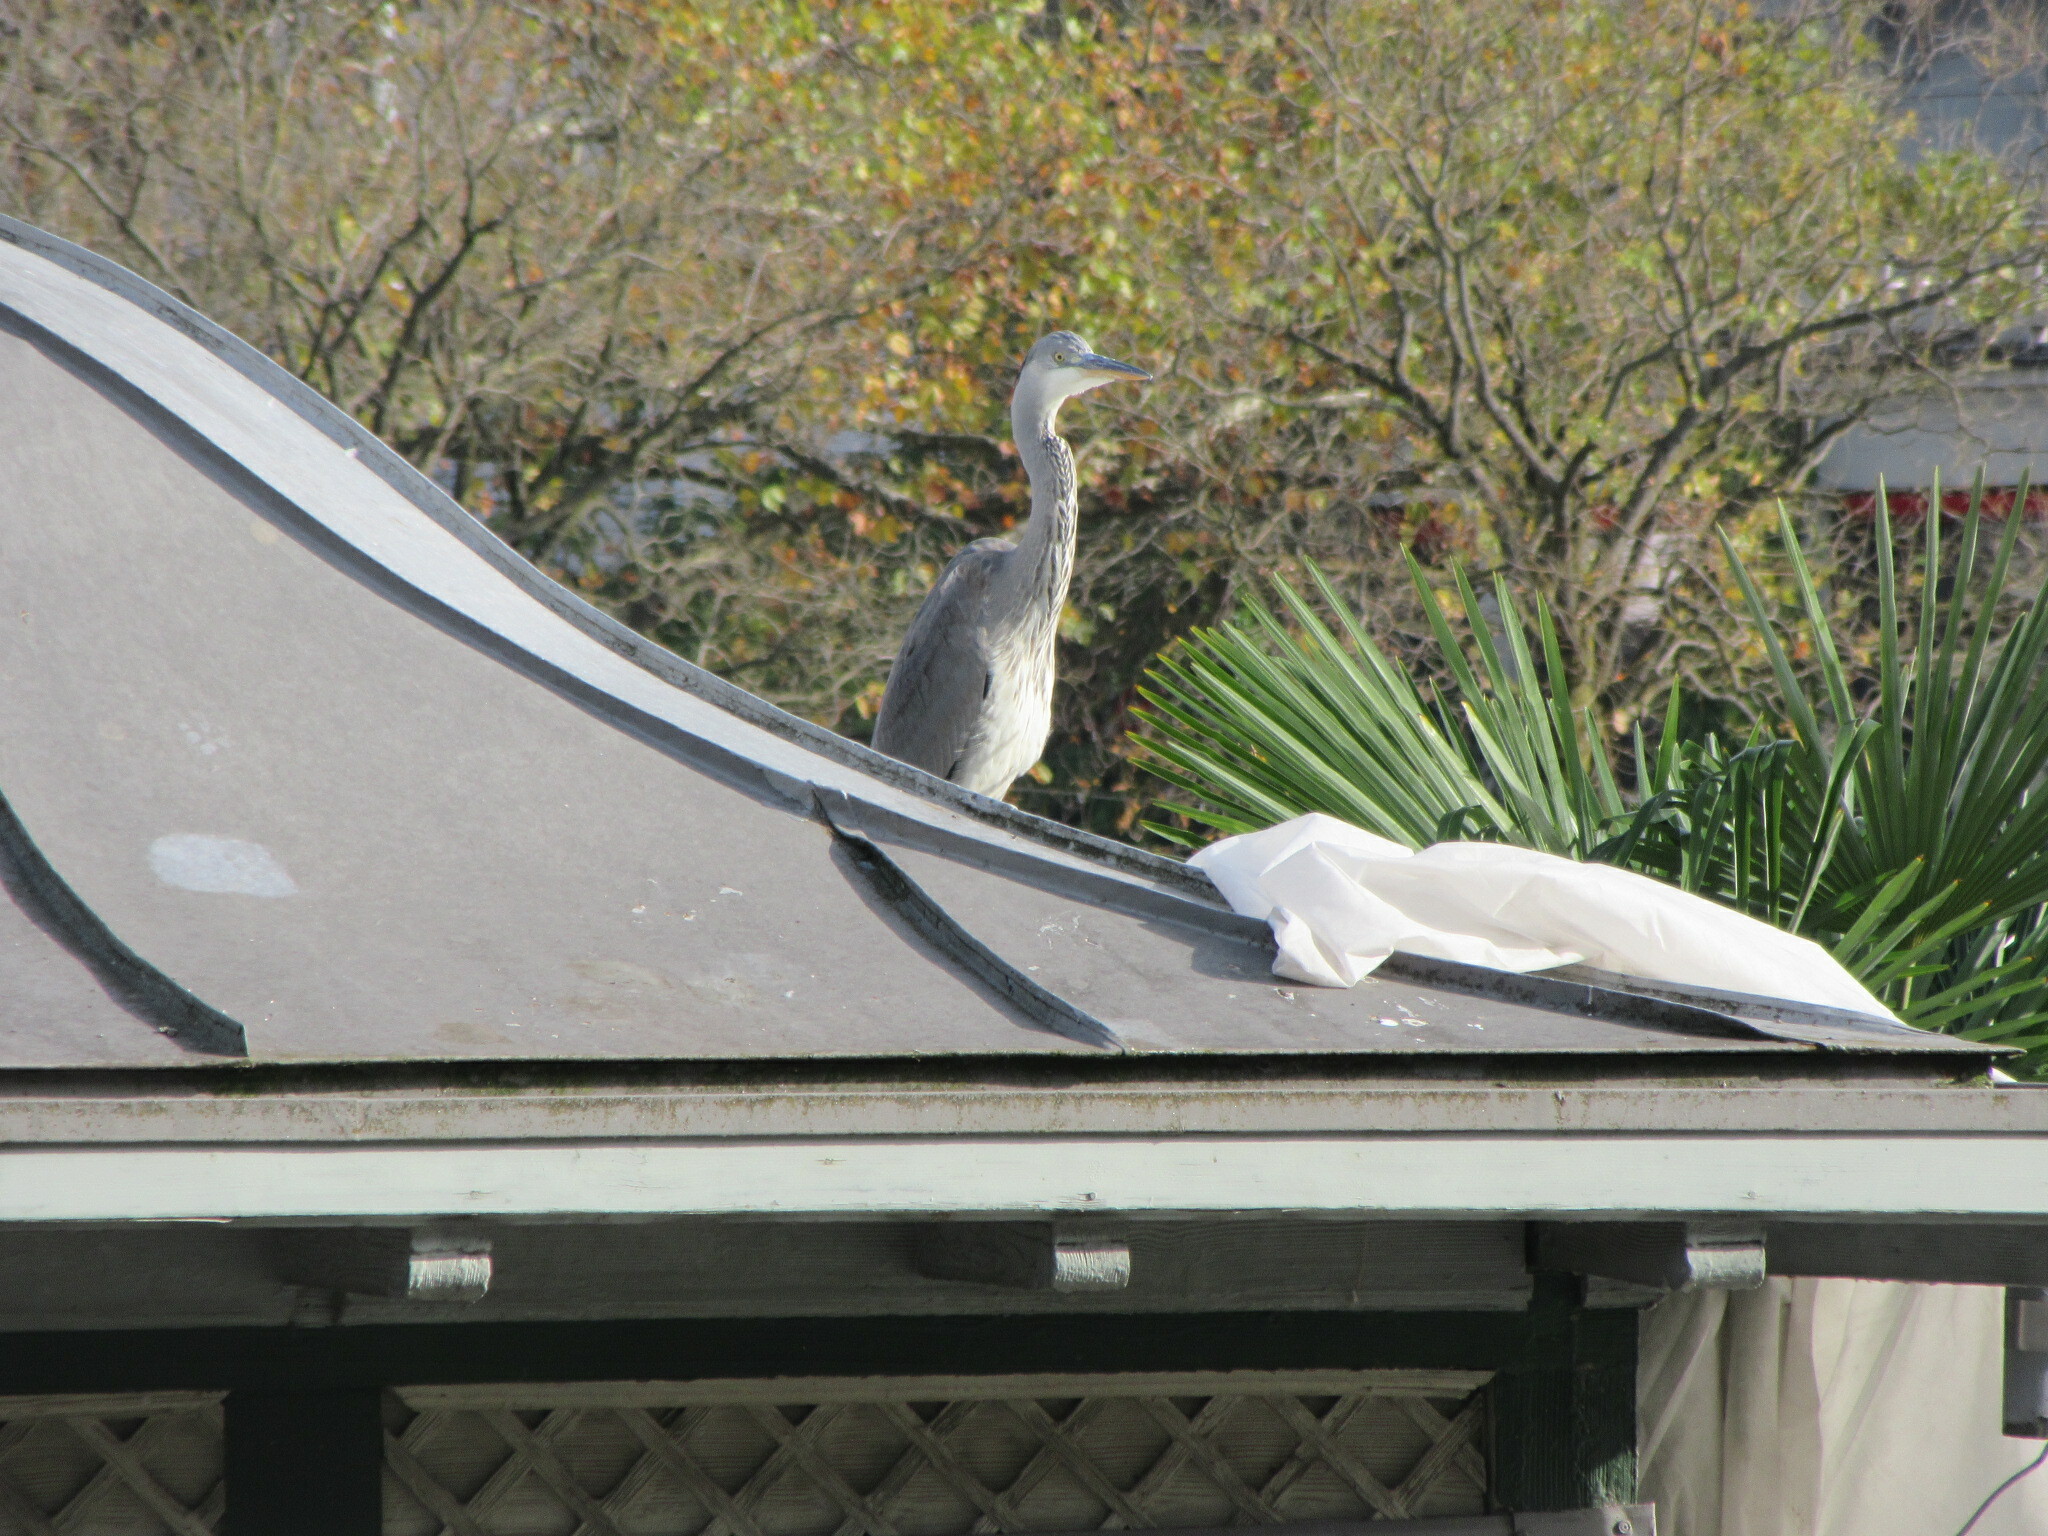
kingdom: Animalia
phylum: Chordata
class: Aves
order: Pelecaniformes
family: Ardeidae
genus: Ardea
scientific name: Ardea cinerea
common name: Grey heron
